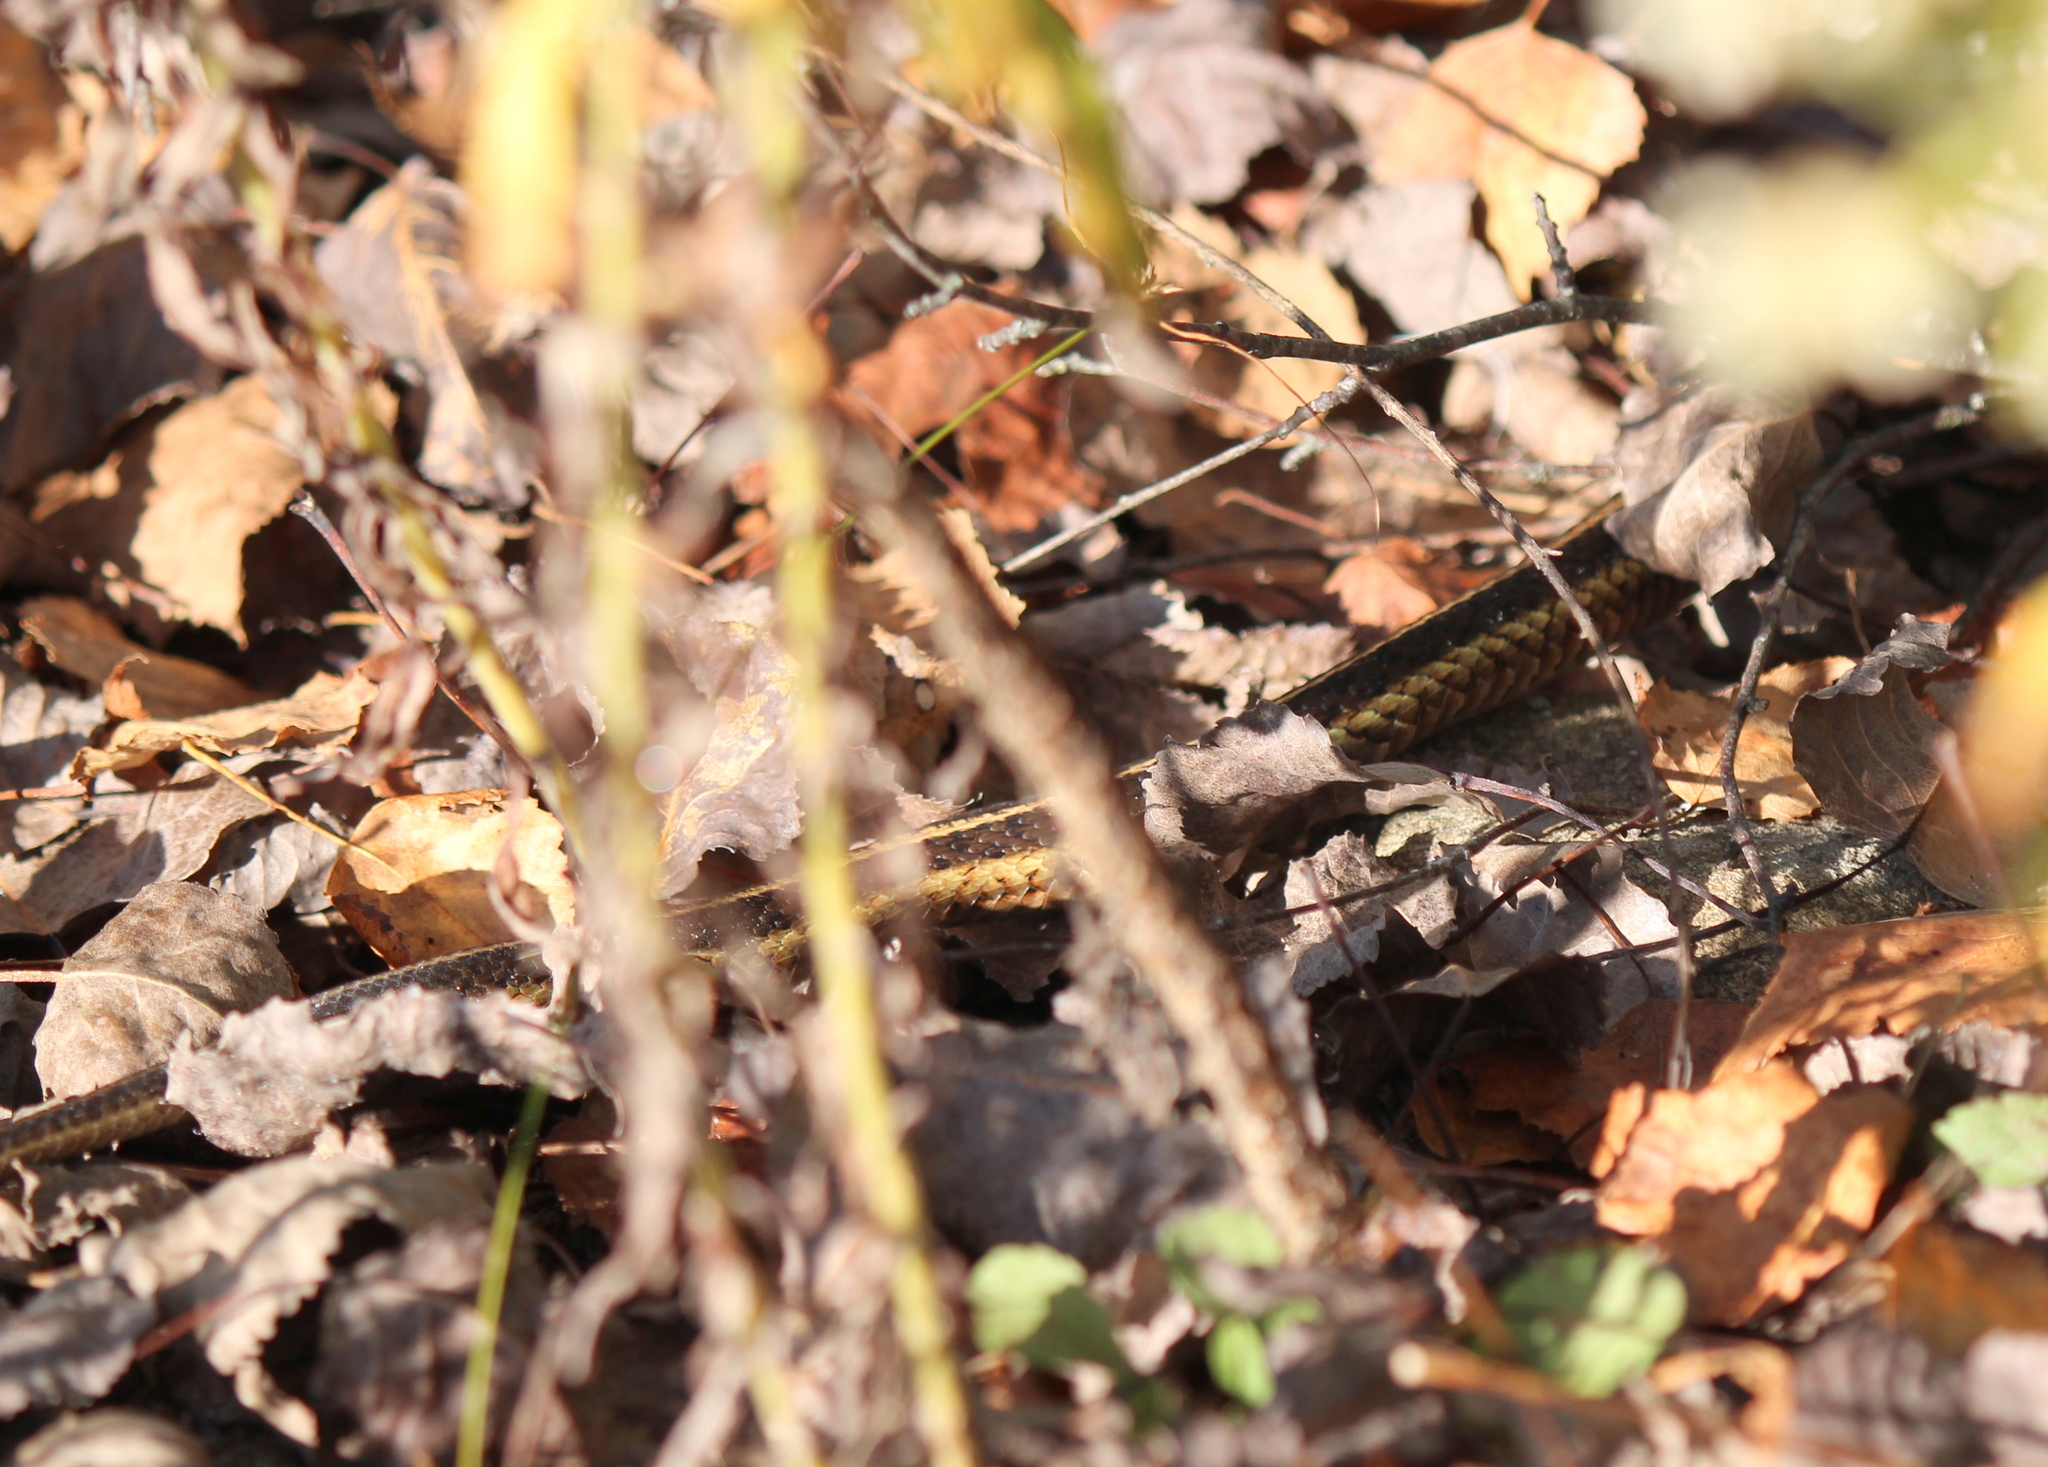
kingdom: Animalia
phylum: Chordata
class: Squamata
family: Colubridae
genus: Thamnophis
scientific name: Thamnophis sirtalis
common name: Common garter snake
